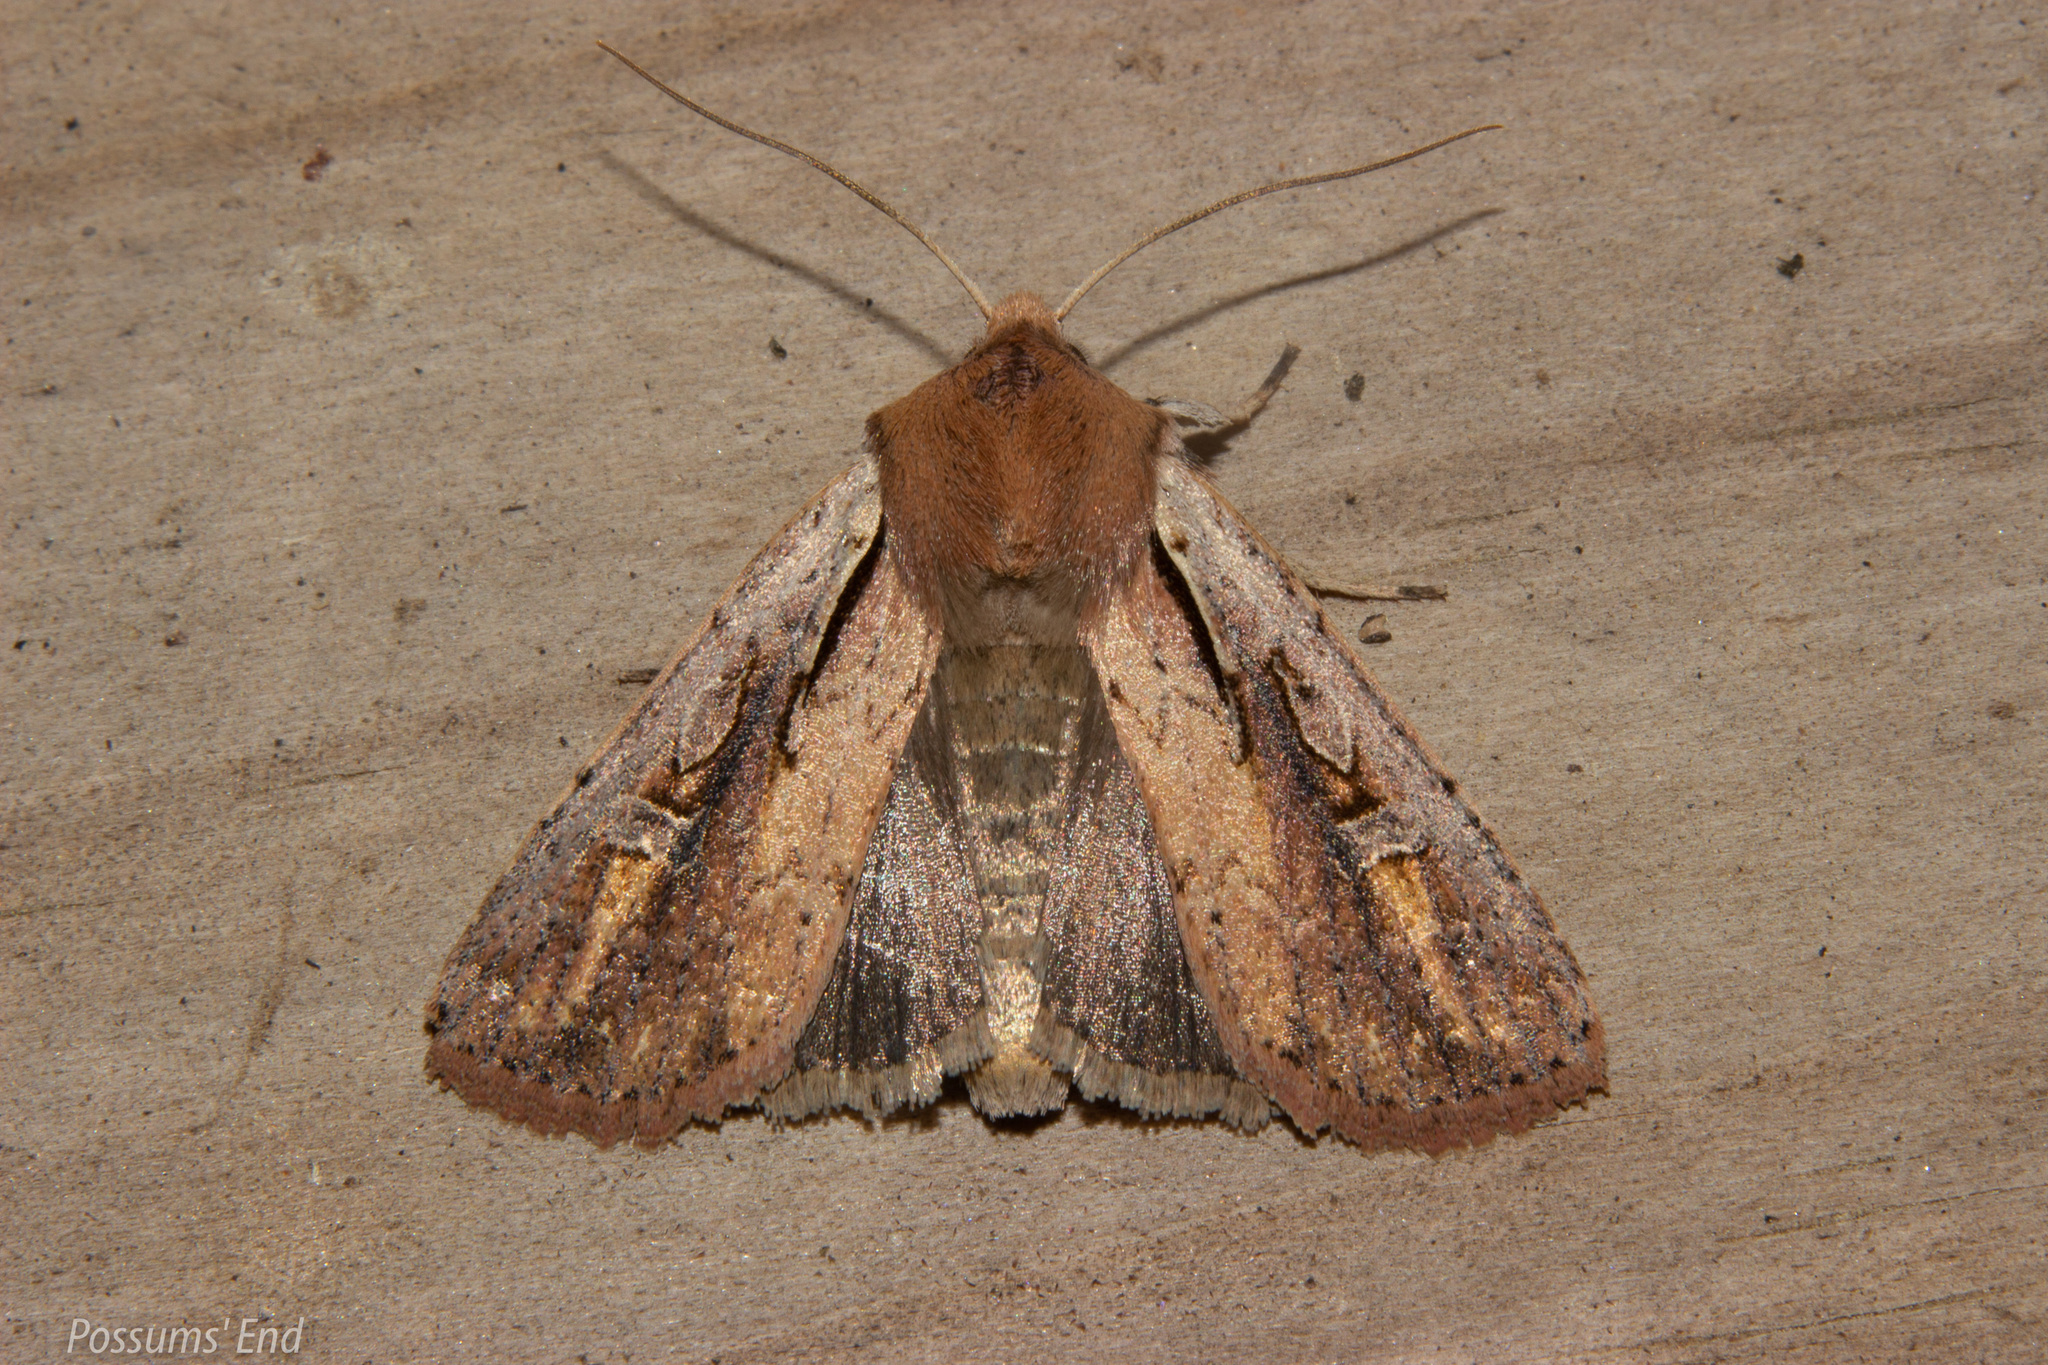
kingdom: Animalia
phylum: Arthropoda
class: Insecta
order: Lepidoptera
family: Noctuidae
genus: Ichneutica
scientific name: Ichneutica atristriga
